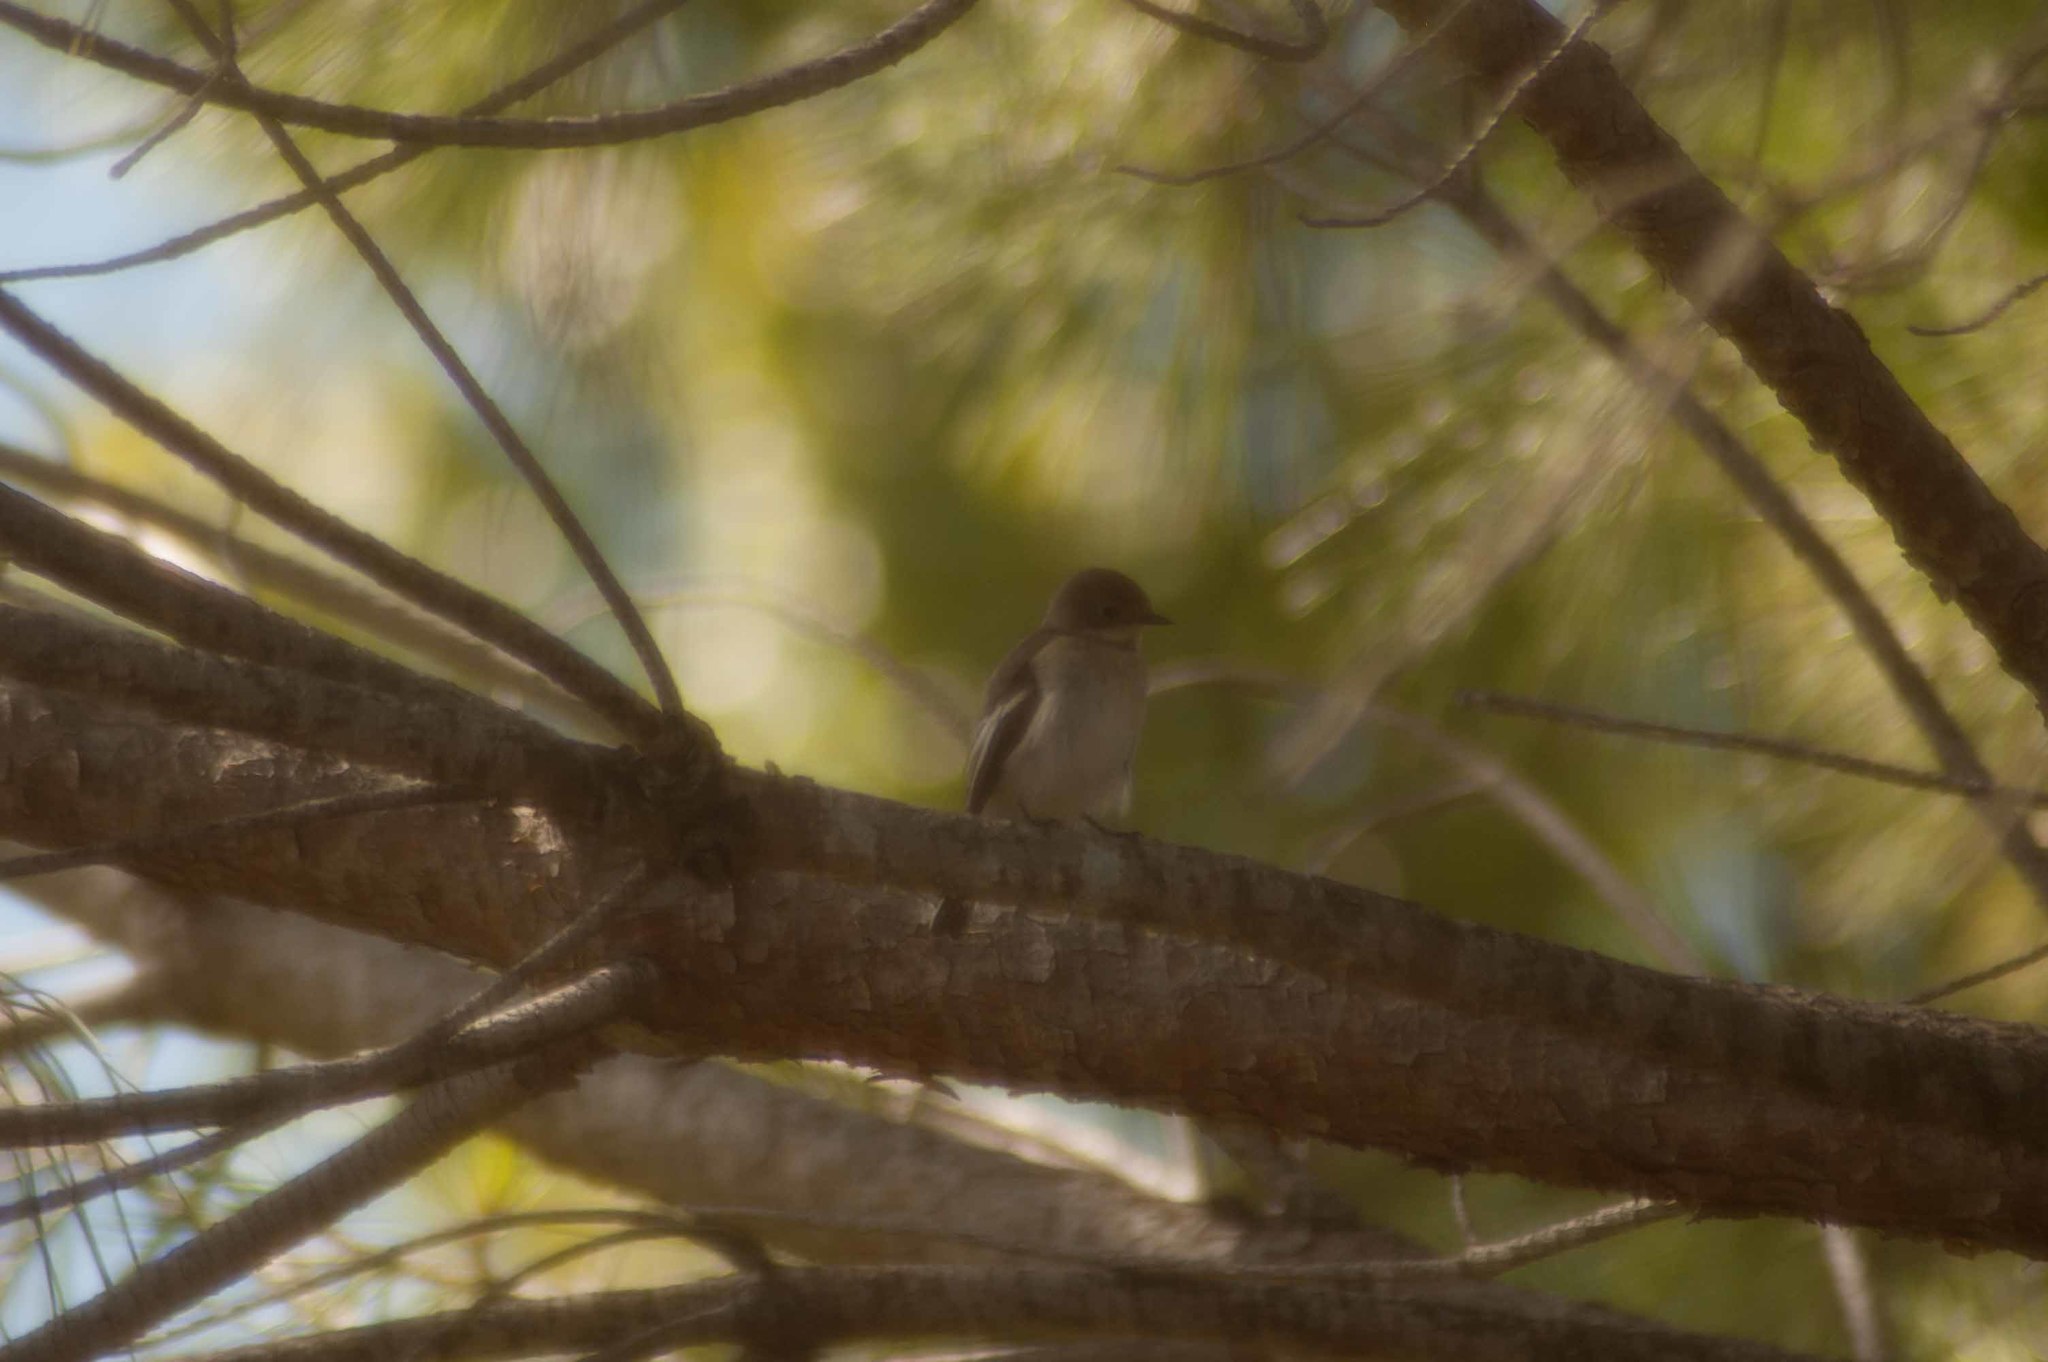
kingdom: Animalia
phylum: Chordata
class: Aves
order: Passeriformes
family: Muscicapidae
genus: Ficedula
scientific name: Ficedula hypoleuca
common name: European pied flycatcher
